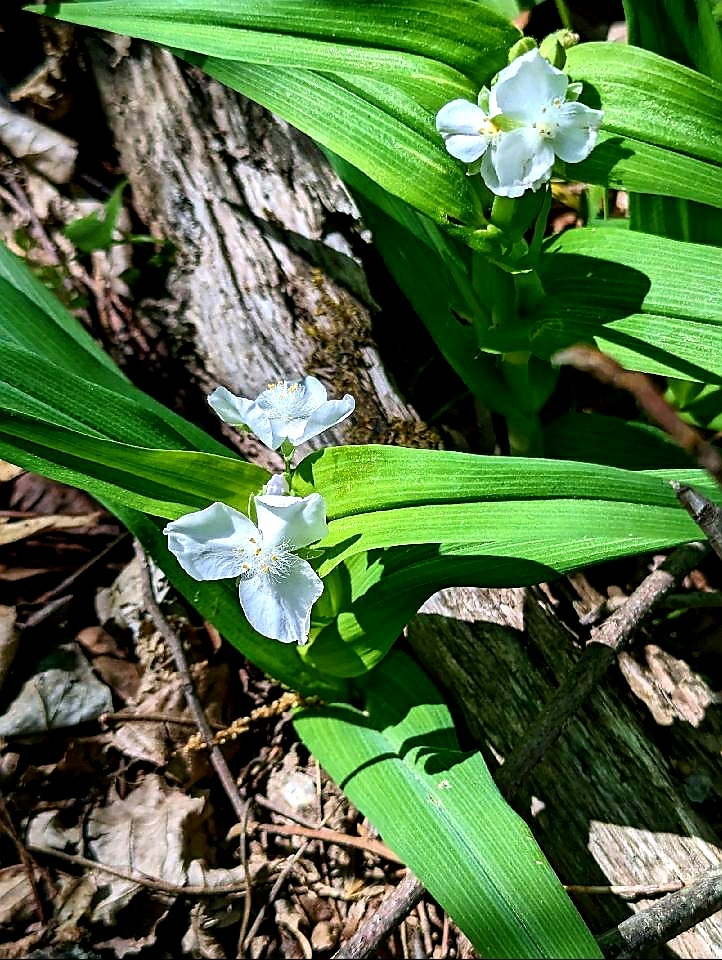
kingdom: Plantae
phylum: Tracheophyta
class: Liliopsida
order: Commelinales
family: Commelinaceae
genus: Tradescantia
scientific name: Tradescantia ozarkana
